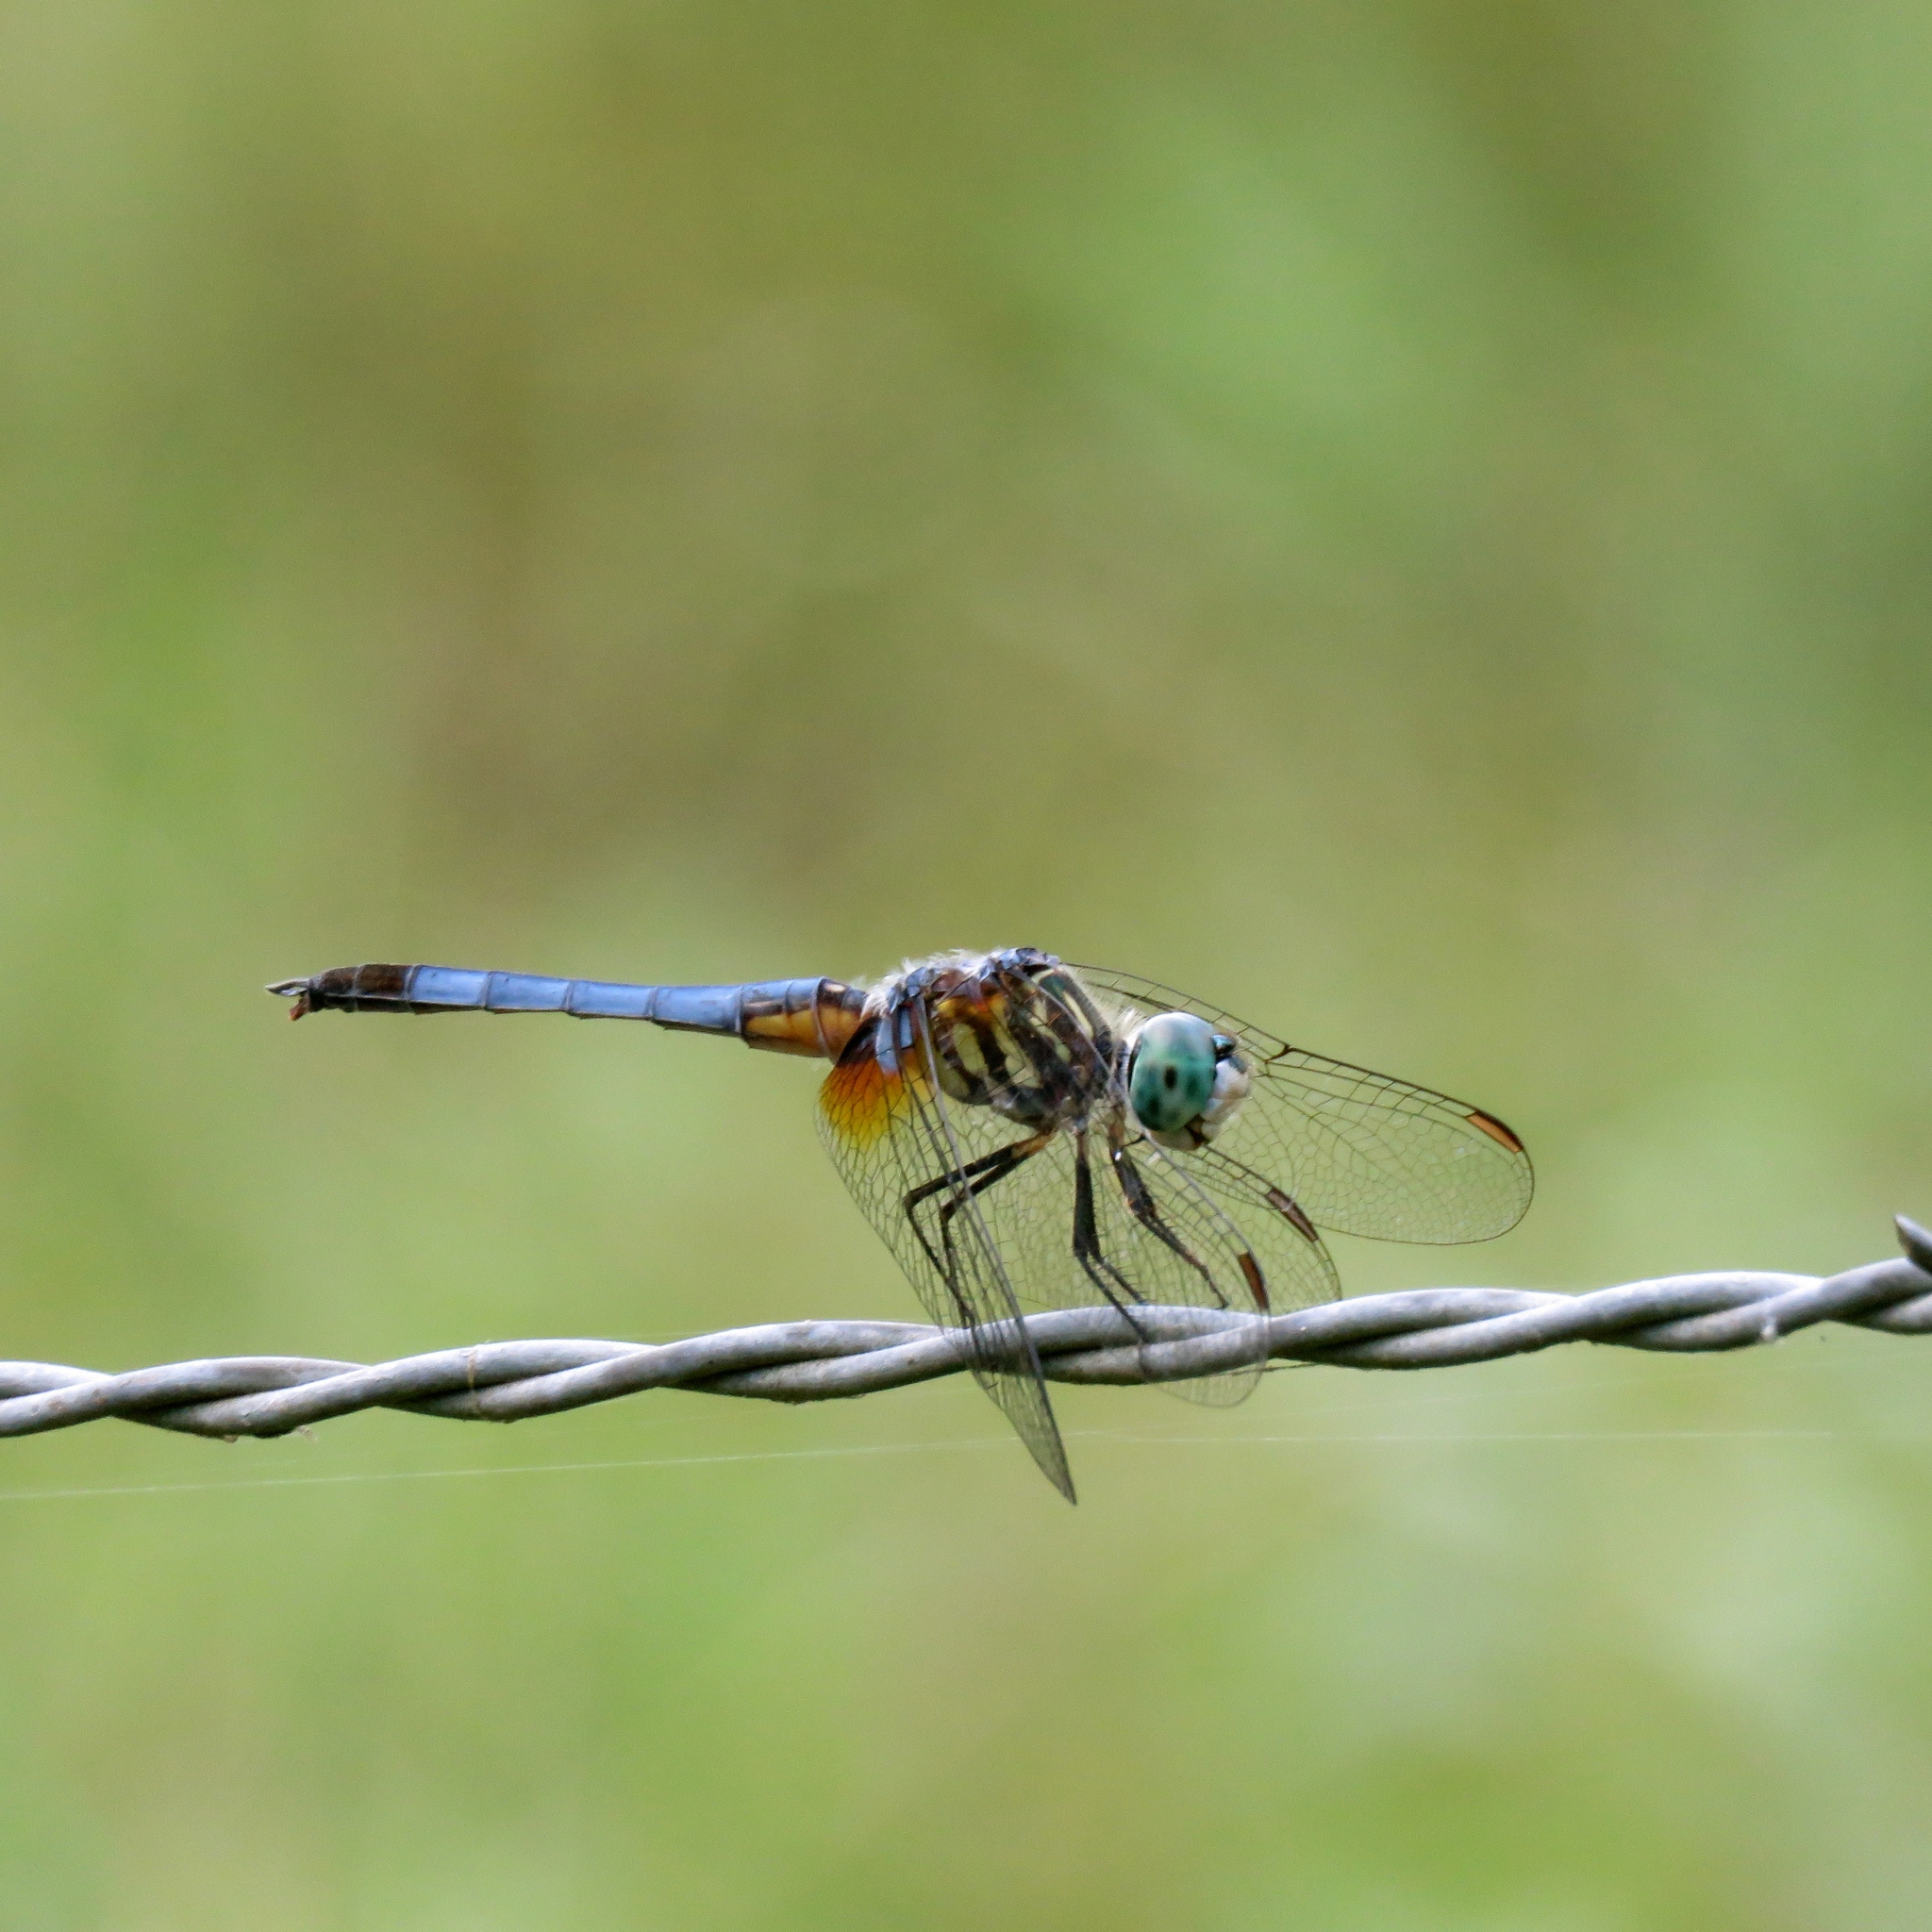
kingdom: Animalia
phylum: Arthropoda
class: Insecta
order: Odonata
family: Libellulidae
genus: Pachydiplax
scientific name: Pachydiplax longipennis
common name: Blue dasher
